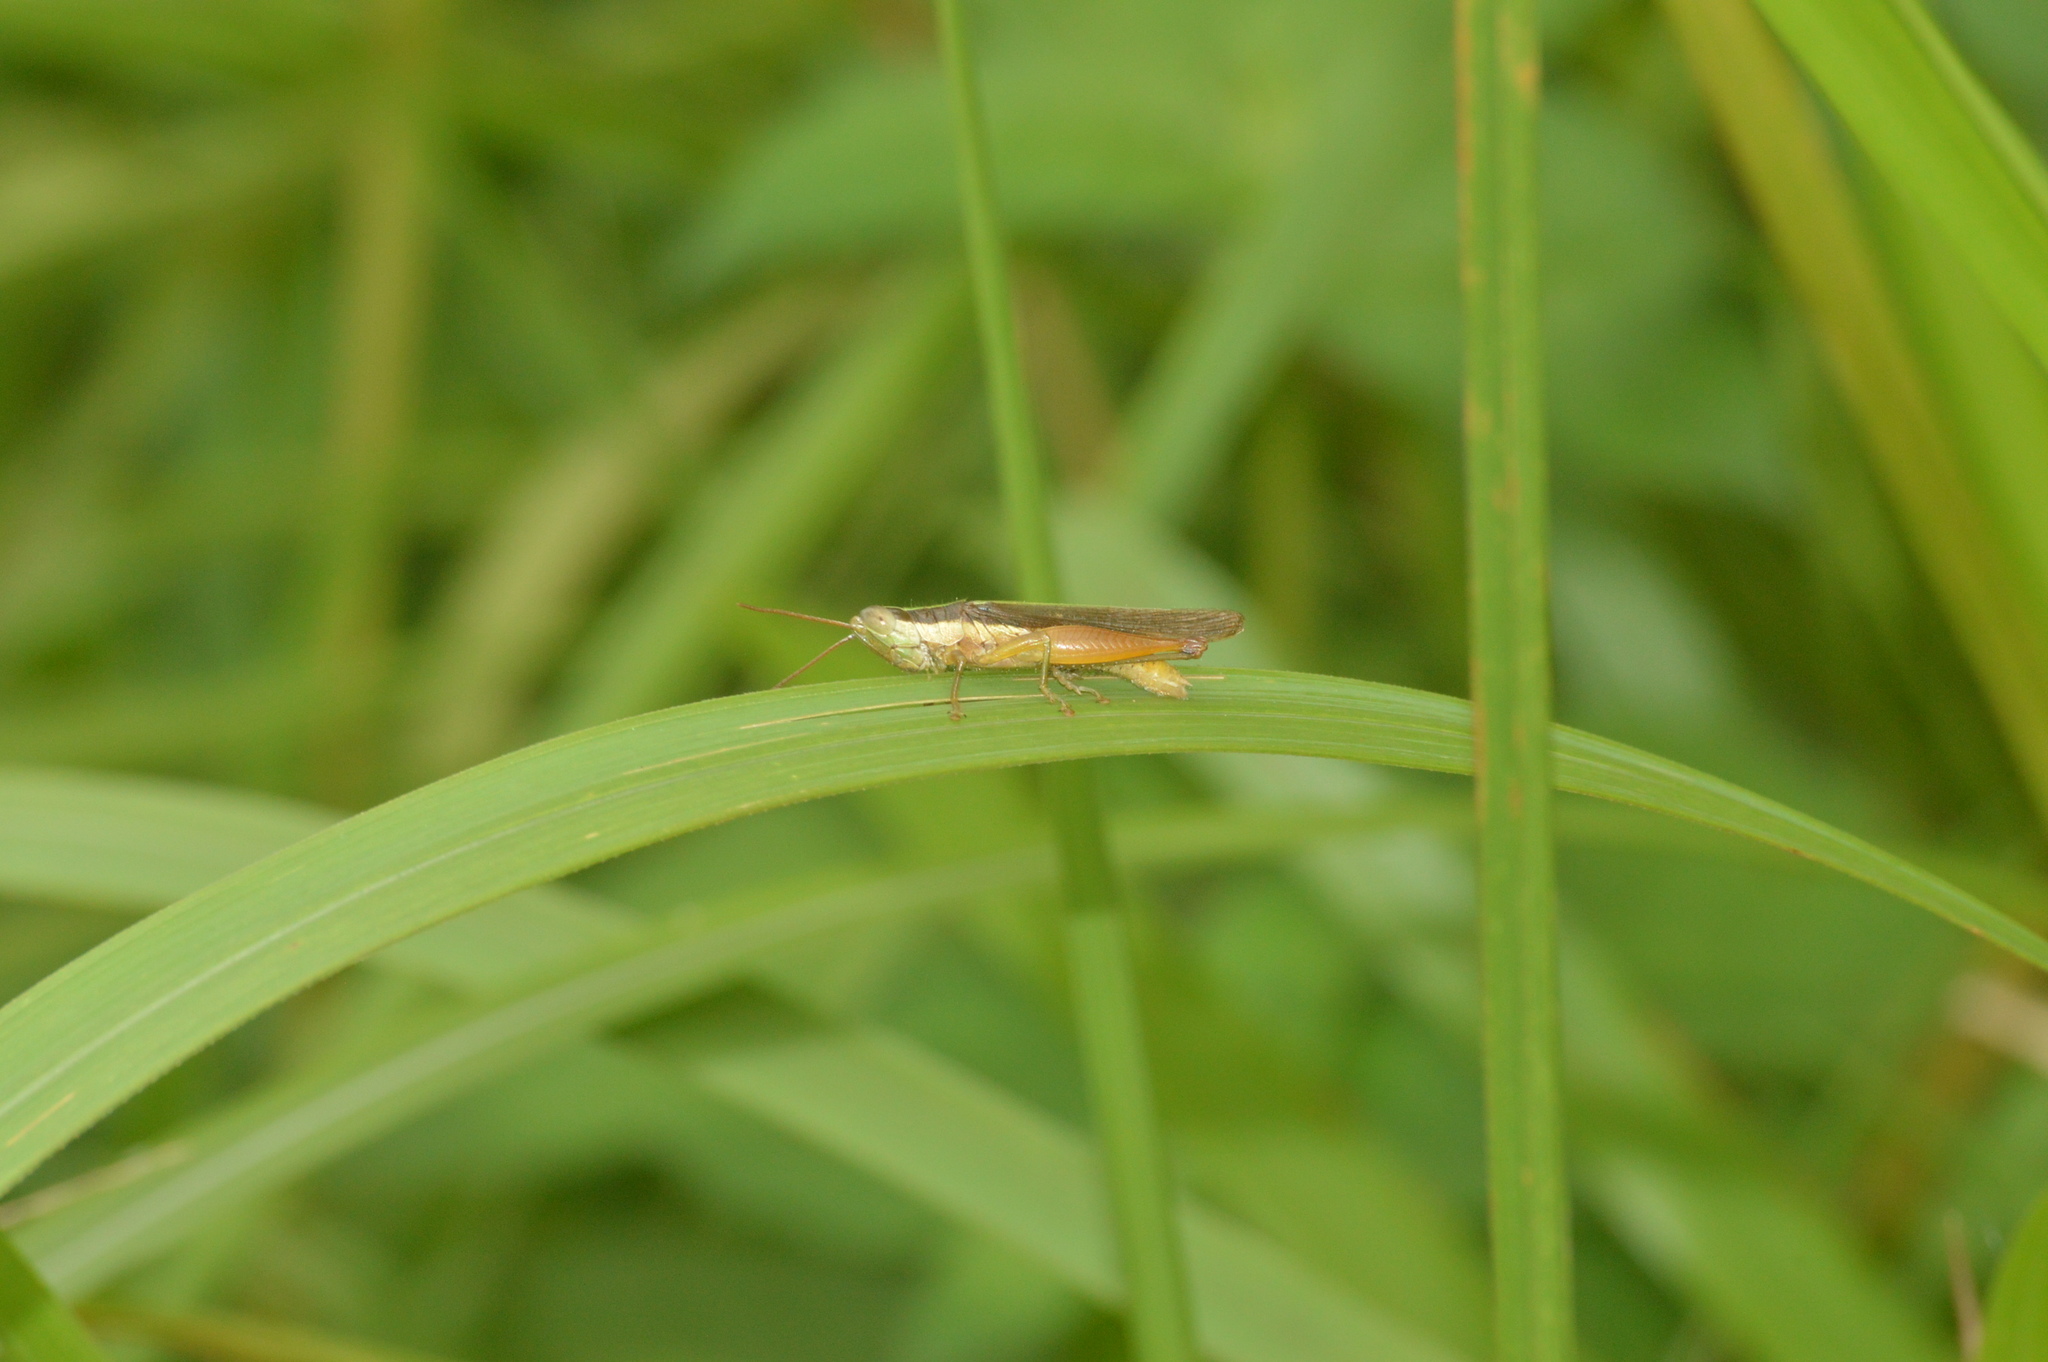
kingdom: Animalia
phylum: Arthropoda
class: Insecta
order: Orthoptera
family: Acrididae
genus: Oxya
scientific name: Oxya intricata
